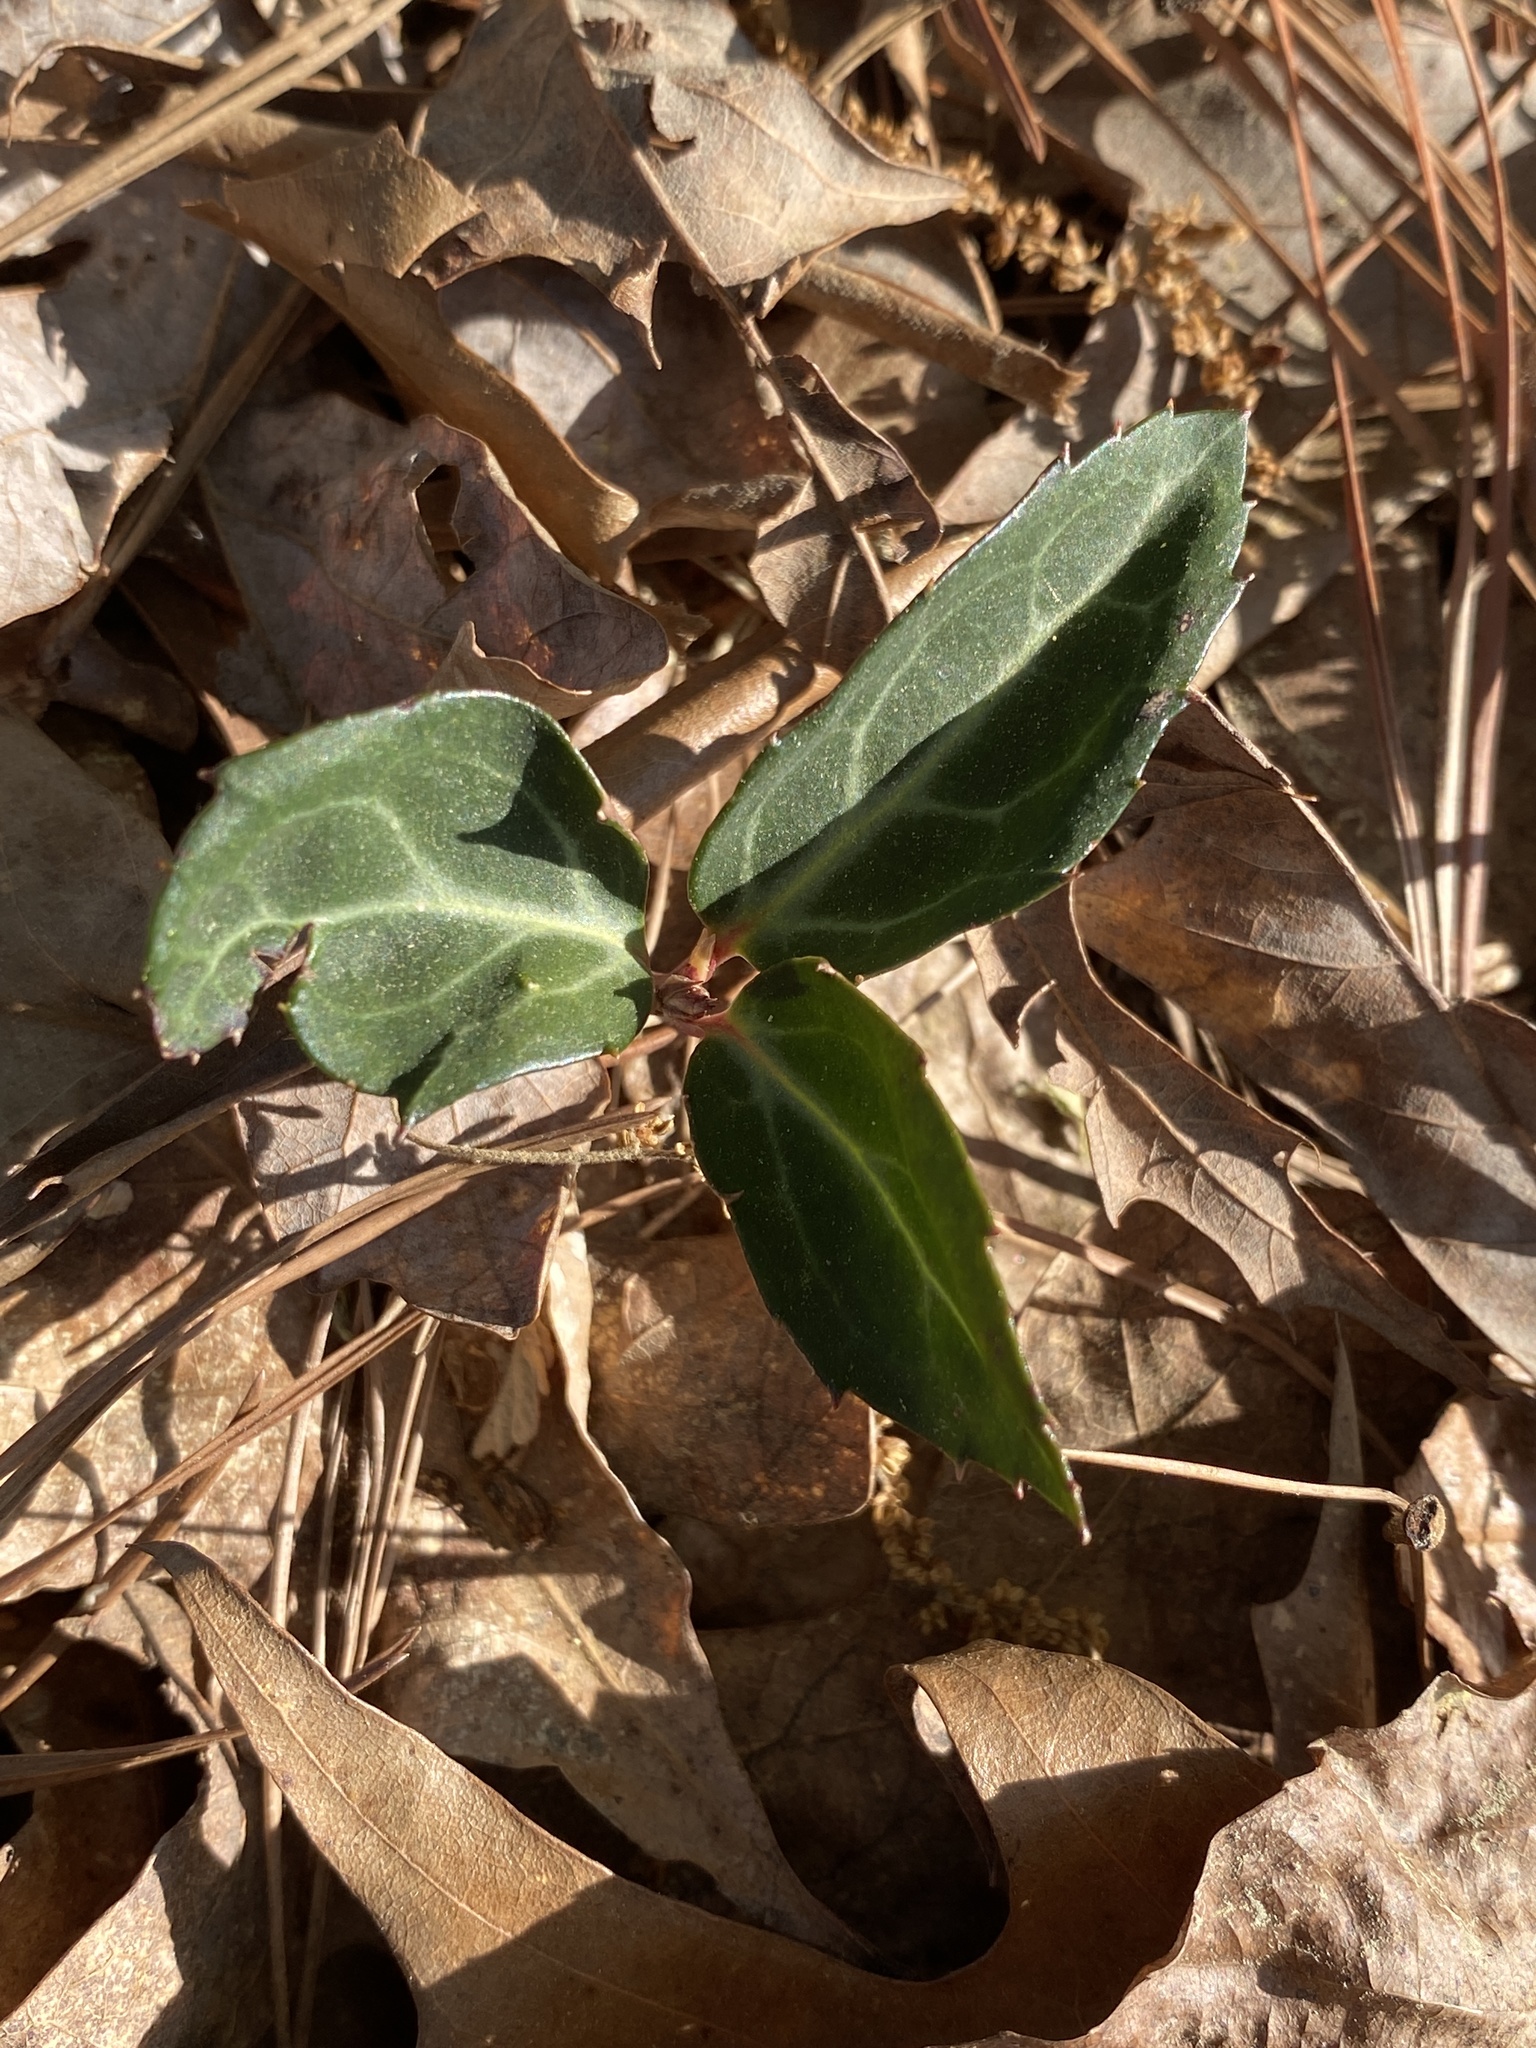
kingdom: Plantae
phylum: Tracheophyta
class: Magnoliopsida
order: Ericales
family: Ericaceae
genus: Chimaphila
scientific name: Chimaphila maculata
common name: Spotted pipsissewa
